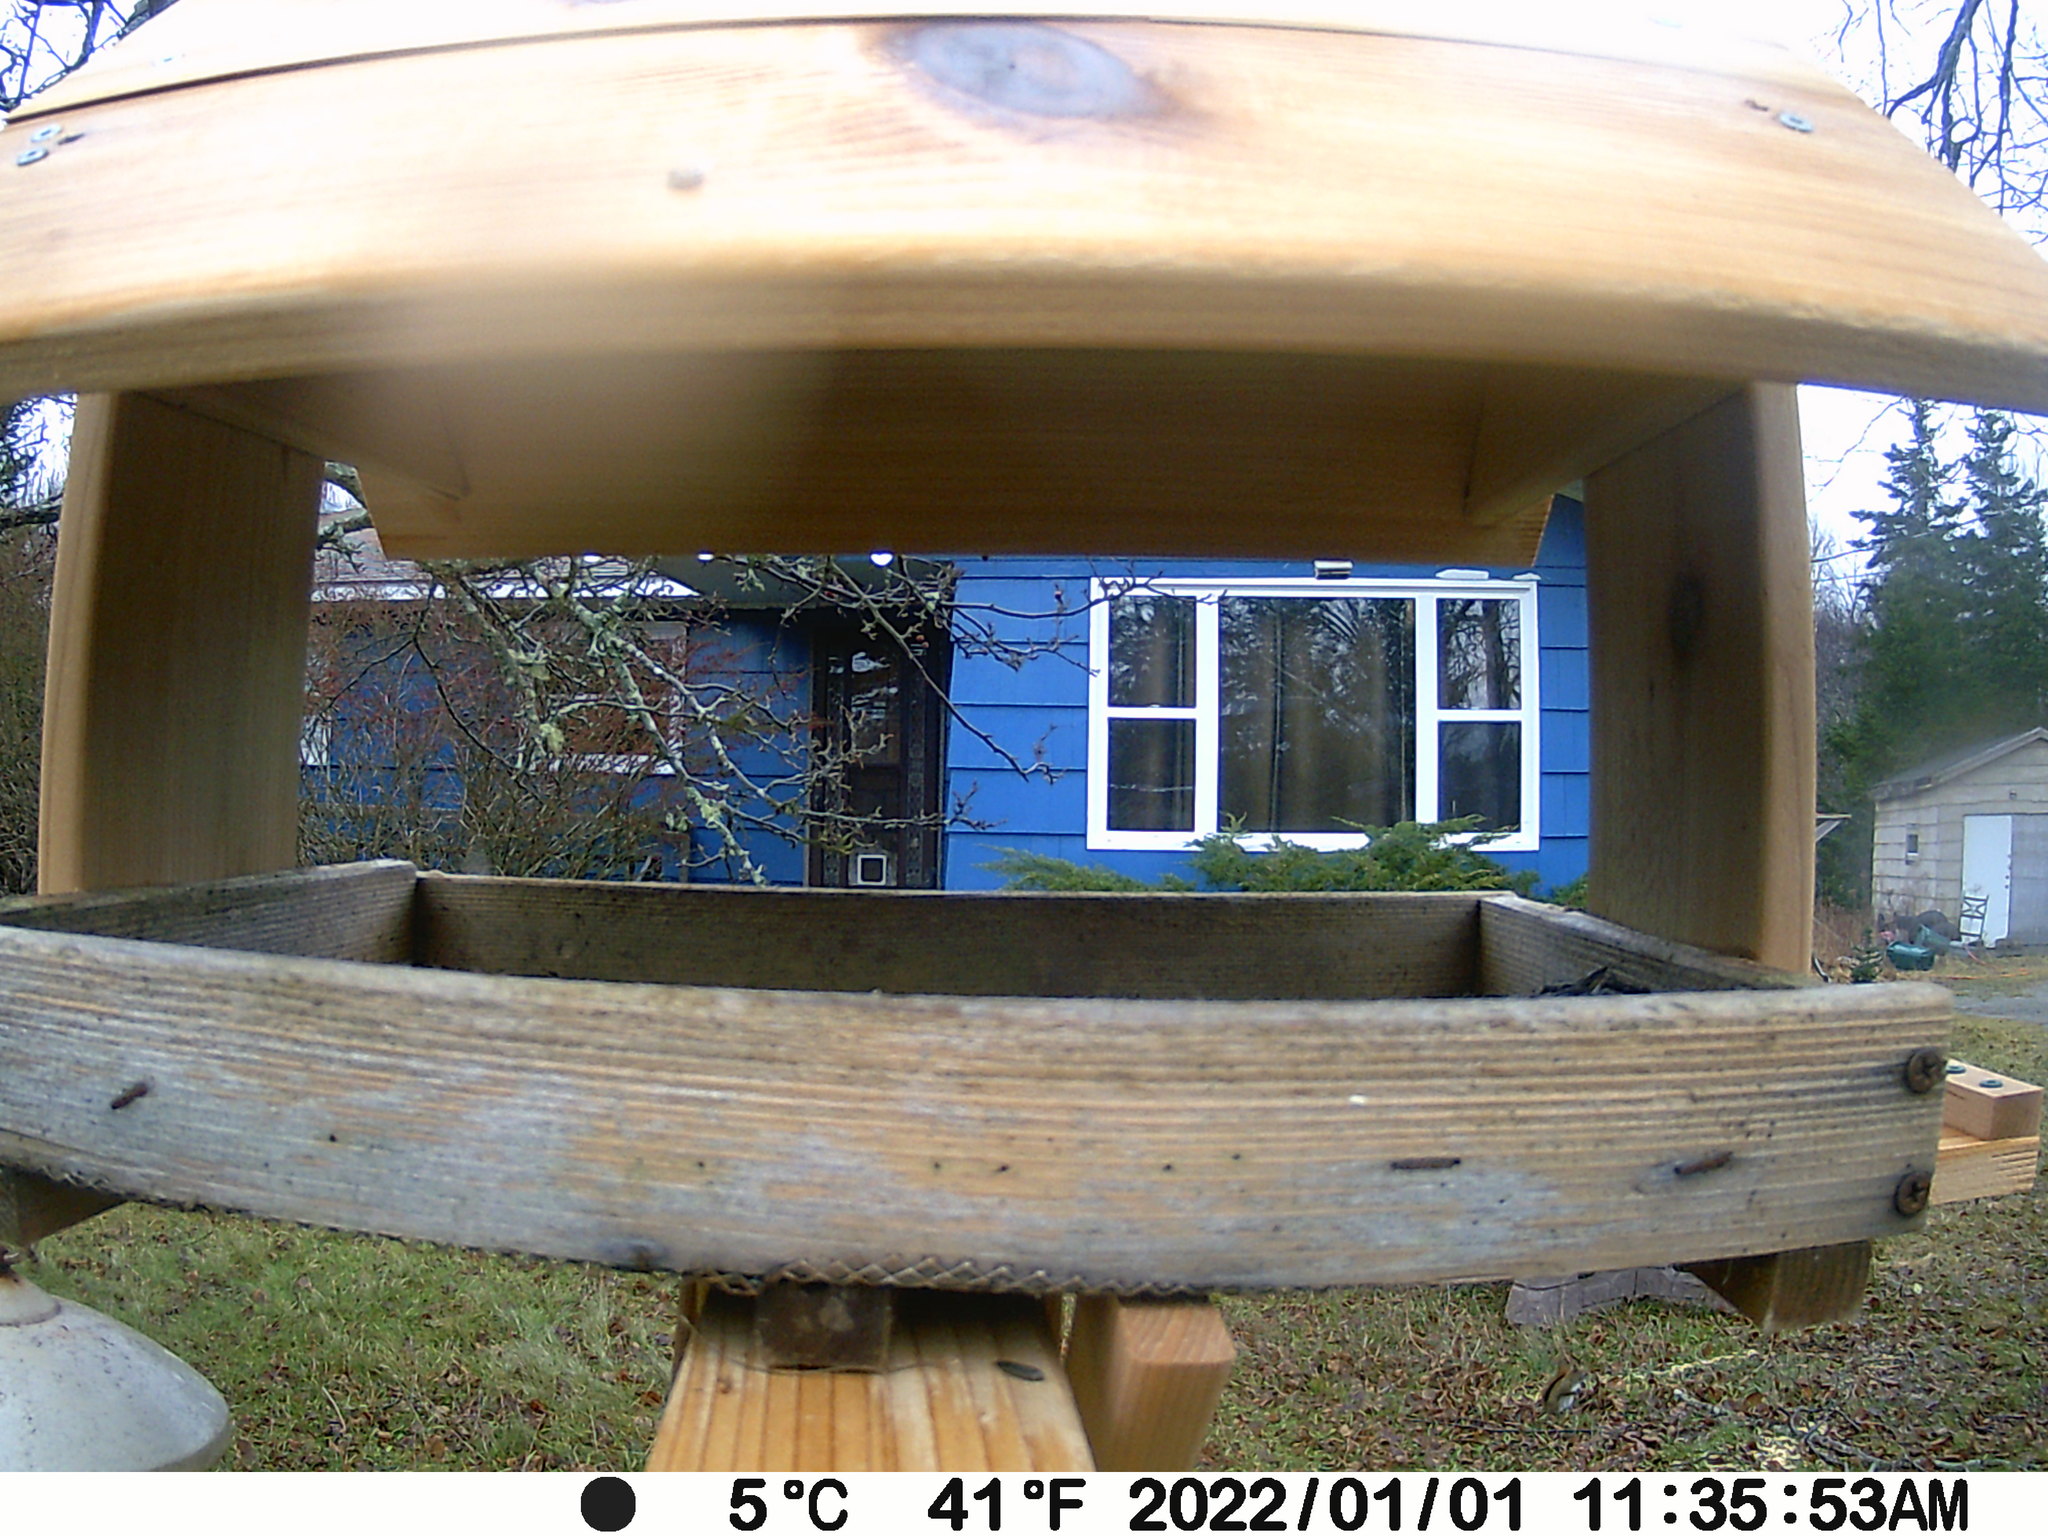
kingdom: Animalia
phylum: Chordata
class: Mammalia
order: Rodentia
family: Sciuridae
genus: Tamiasciurus
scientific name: Tamiasciurus hudsonicus
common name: Red squirrel
